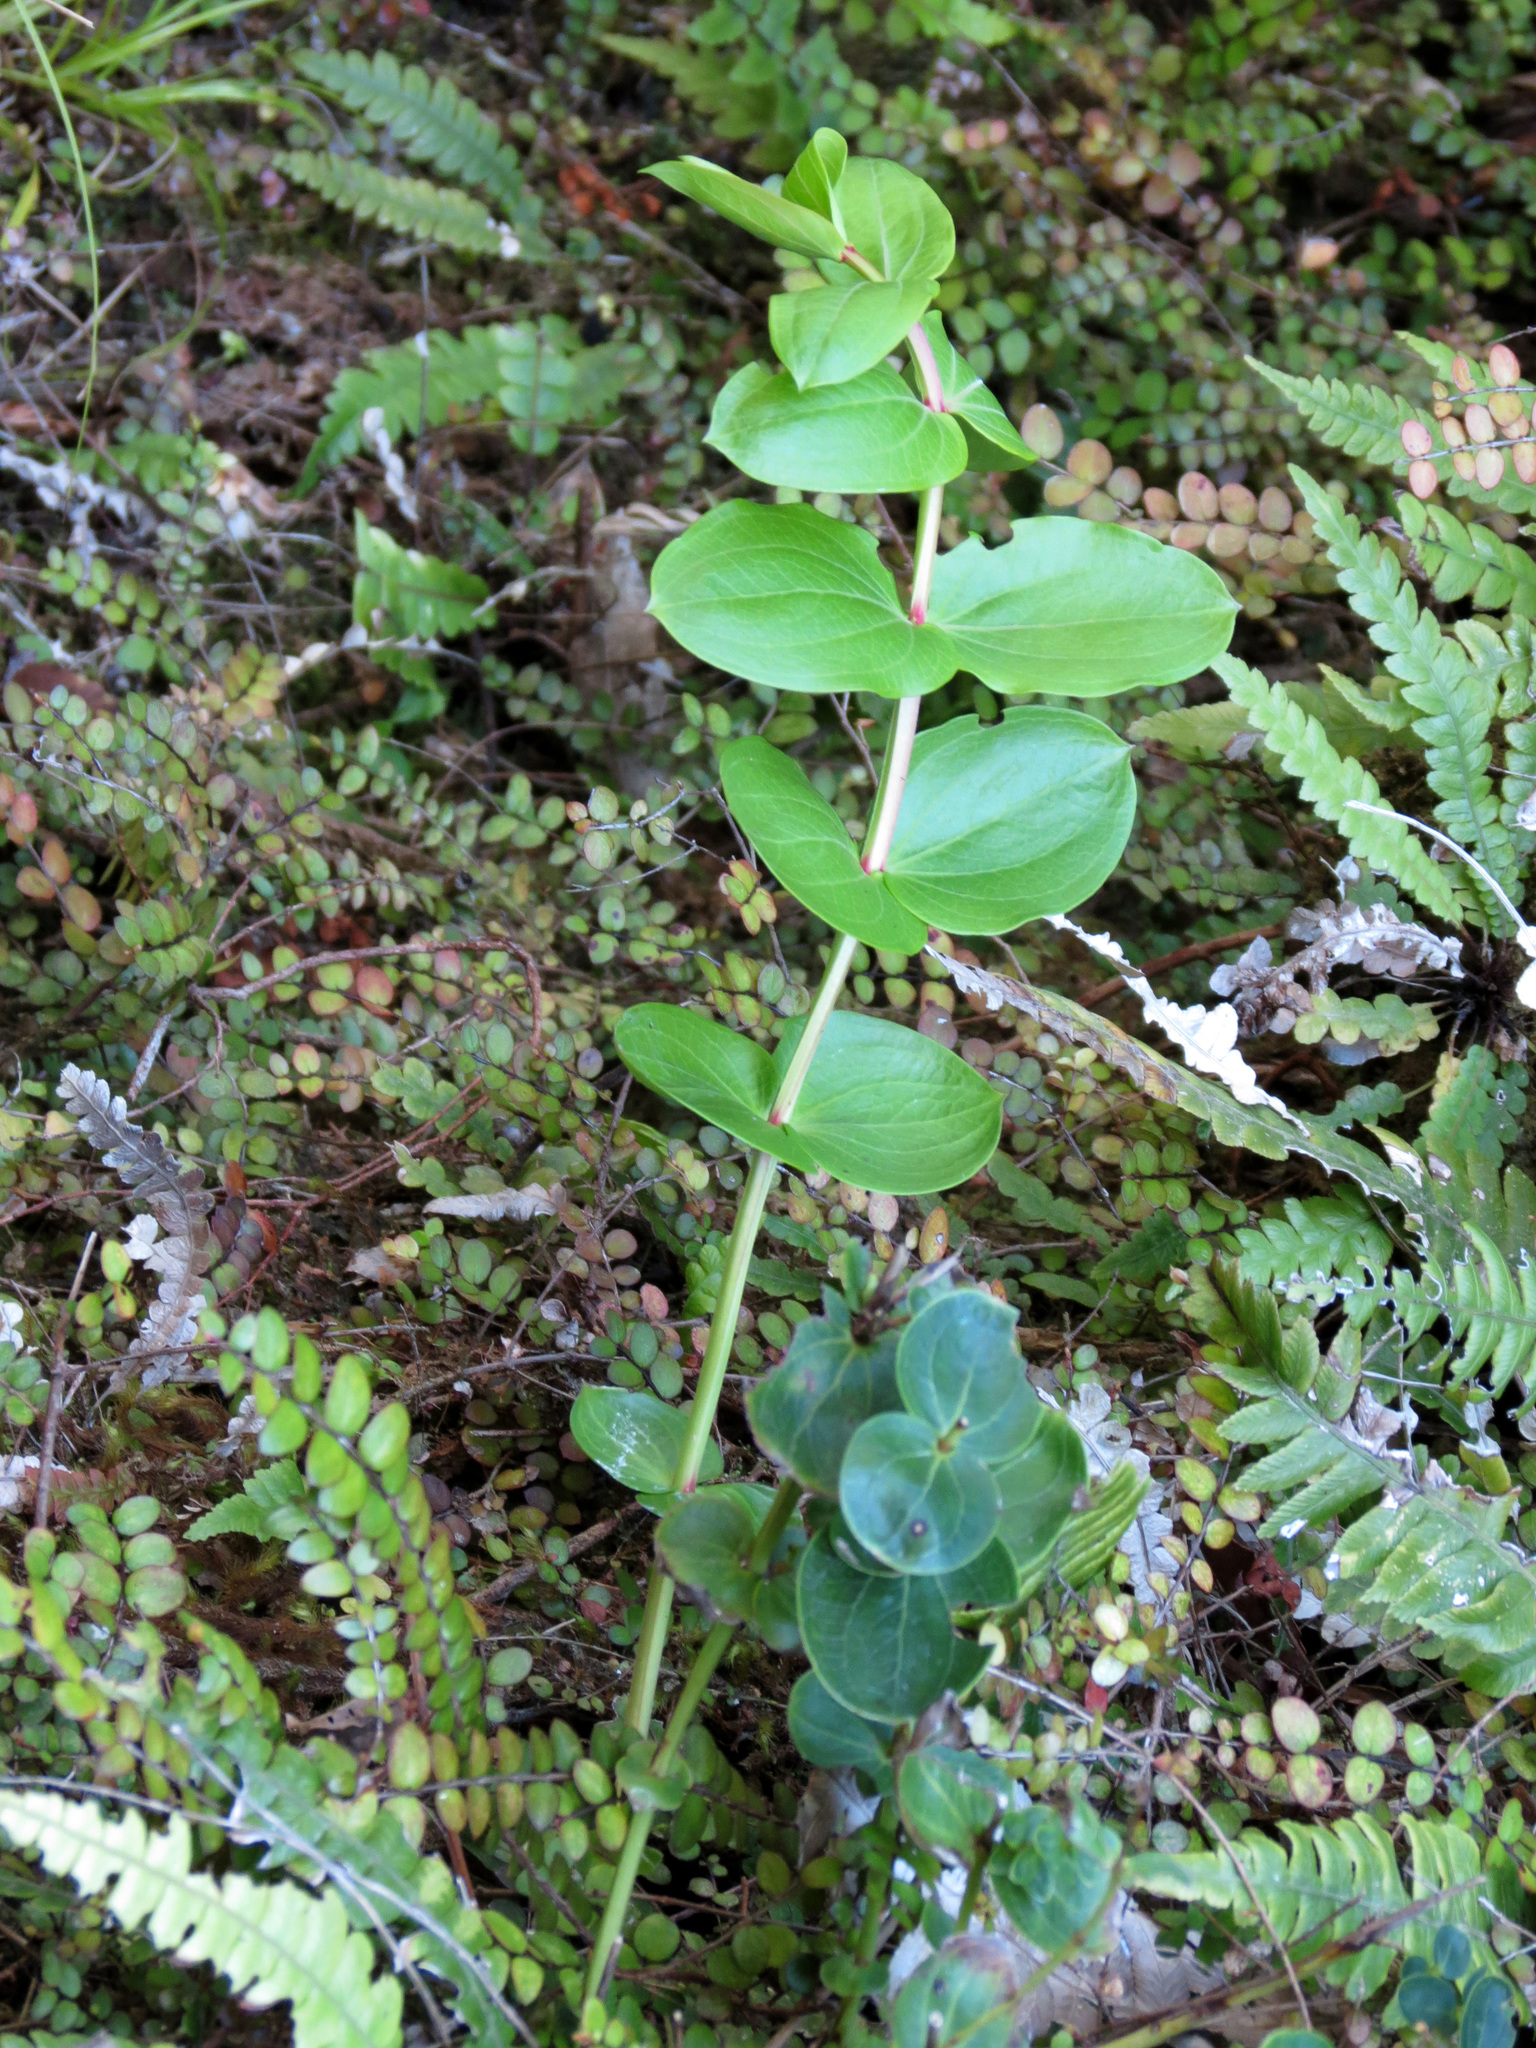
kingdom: Plantae
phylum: Tracheophyta
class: Magnoliopsida
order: Cucurbitales
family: Coriariaceae
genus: Coriaria
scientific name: Coriaria arborea
